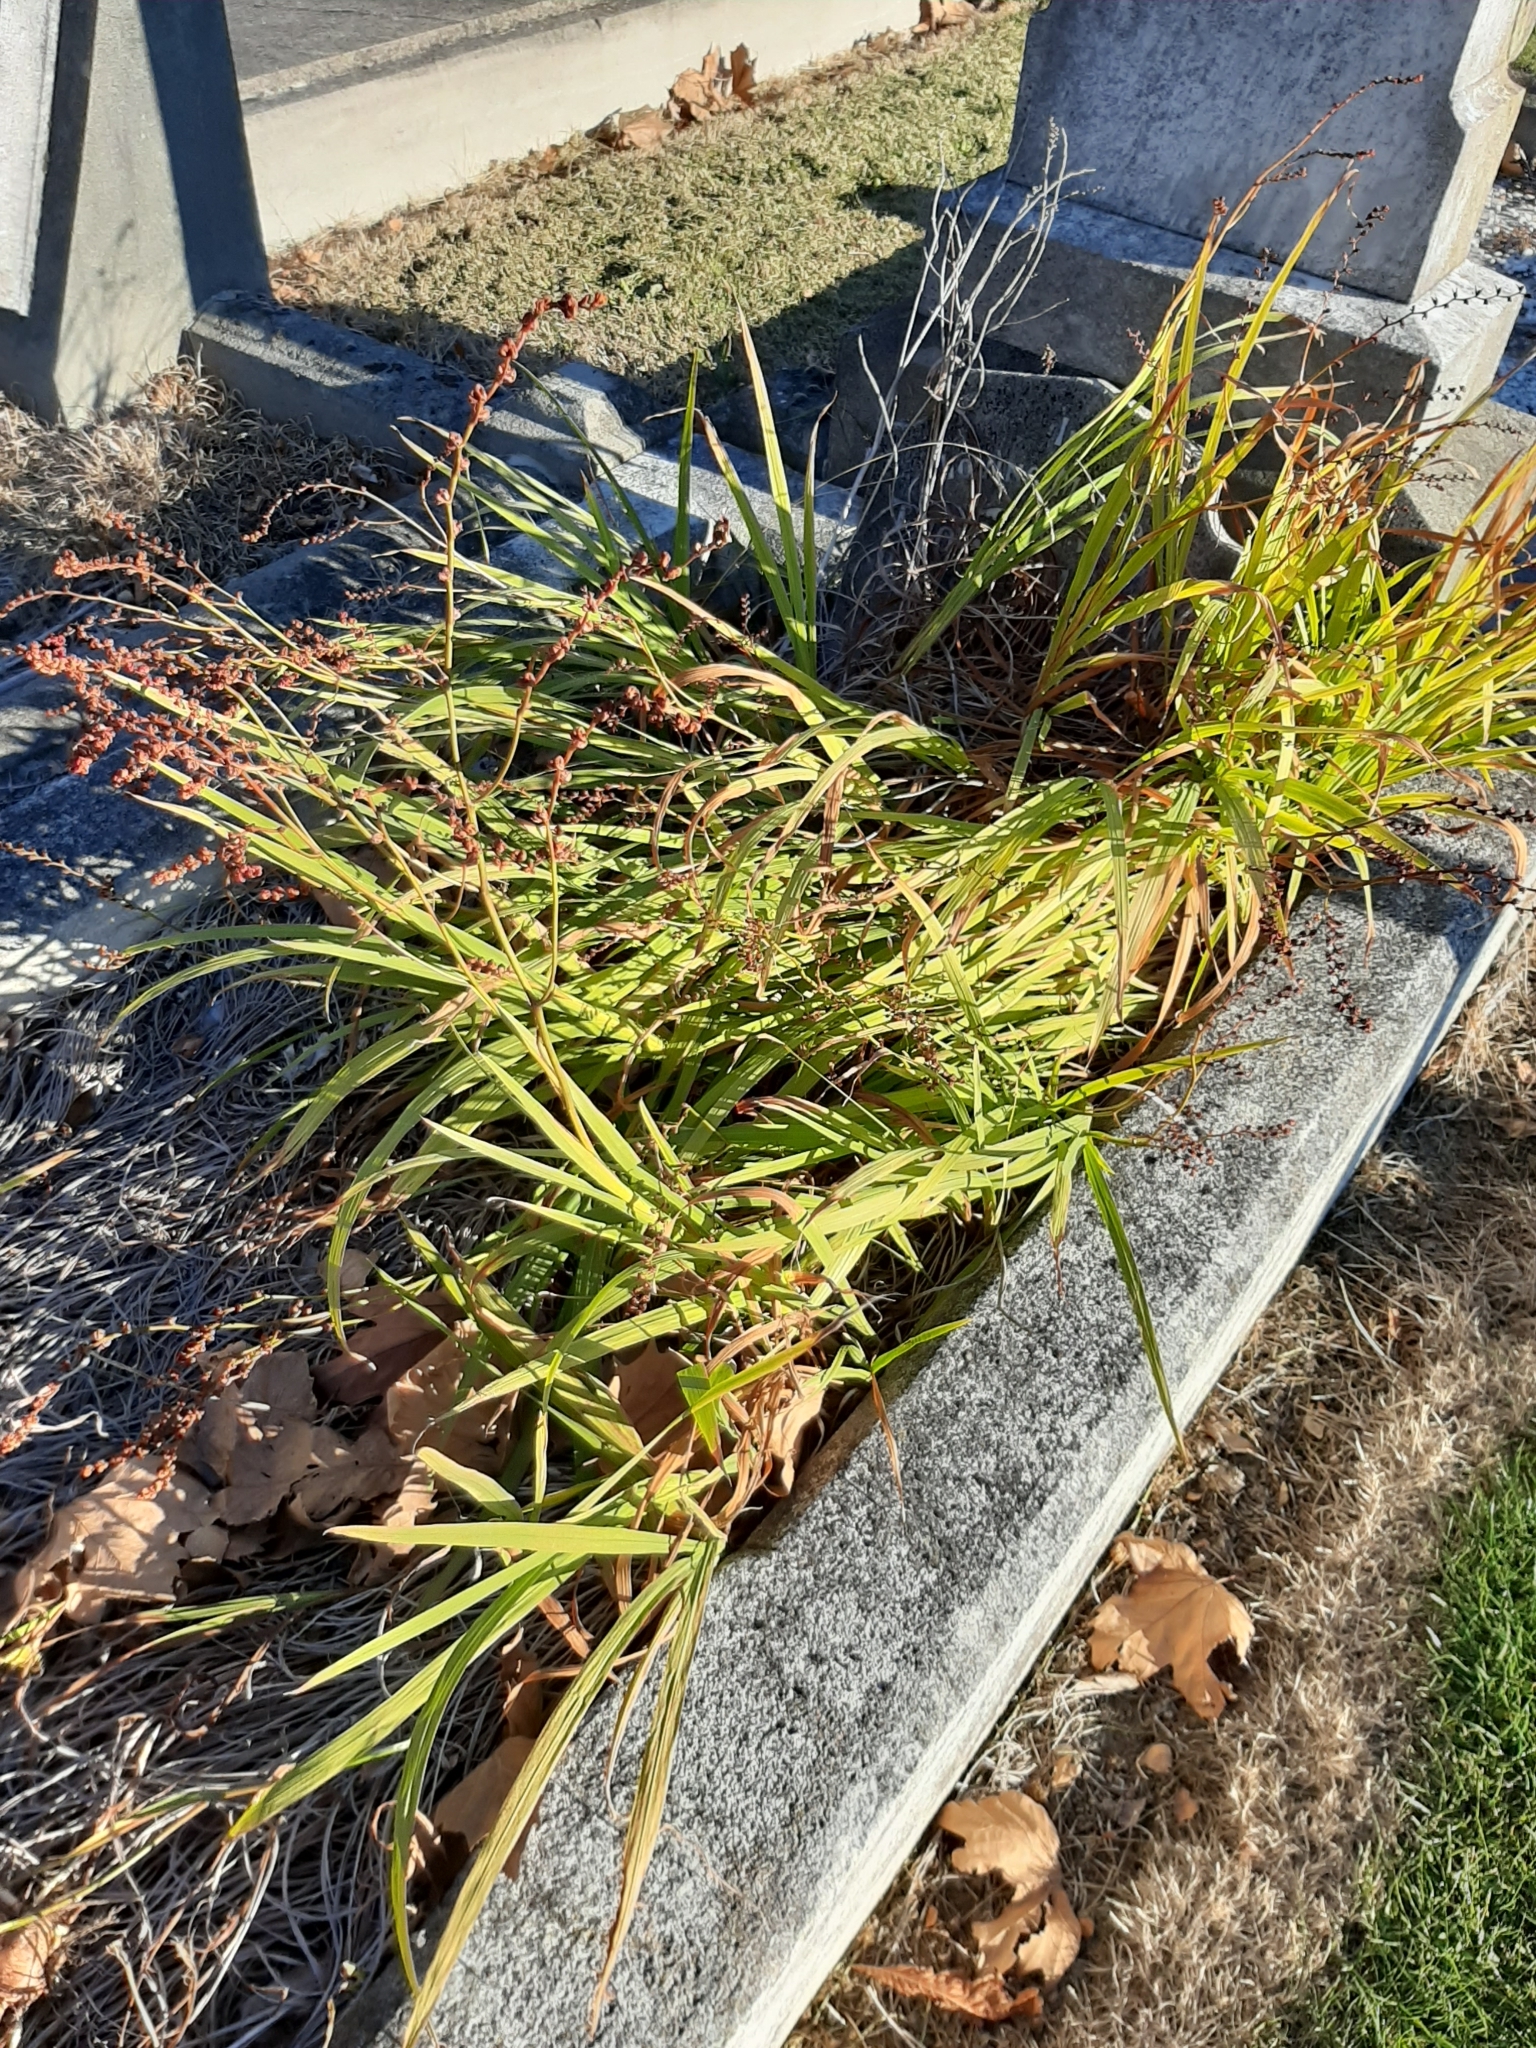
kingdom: Plantae
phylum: Tracheophyta
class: Liliopsida
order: Asparagales
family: Iridaceae
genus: Crocosmia
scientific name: Crocosmia crocosmiiflora
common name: Montbretia
